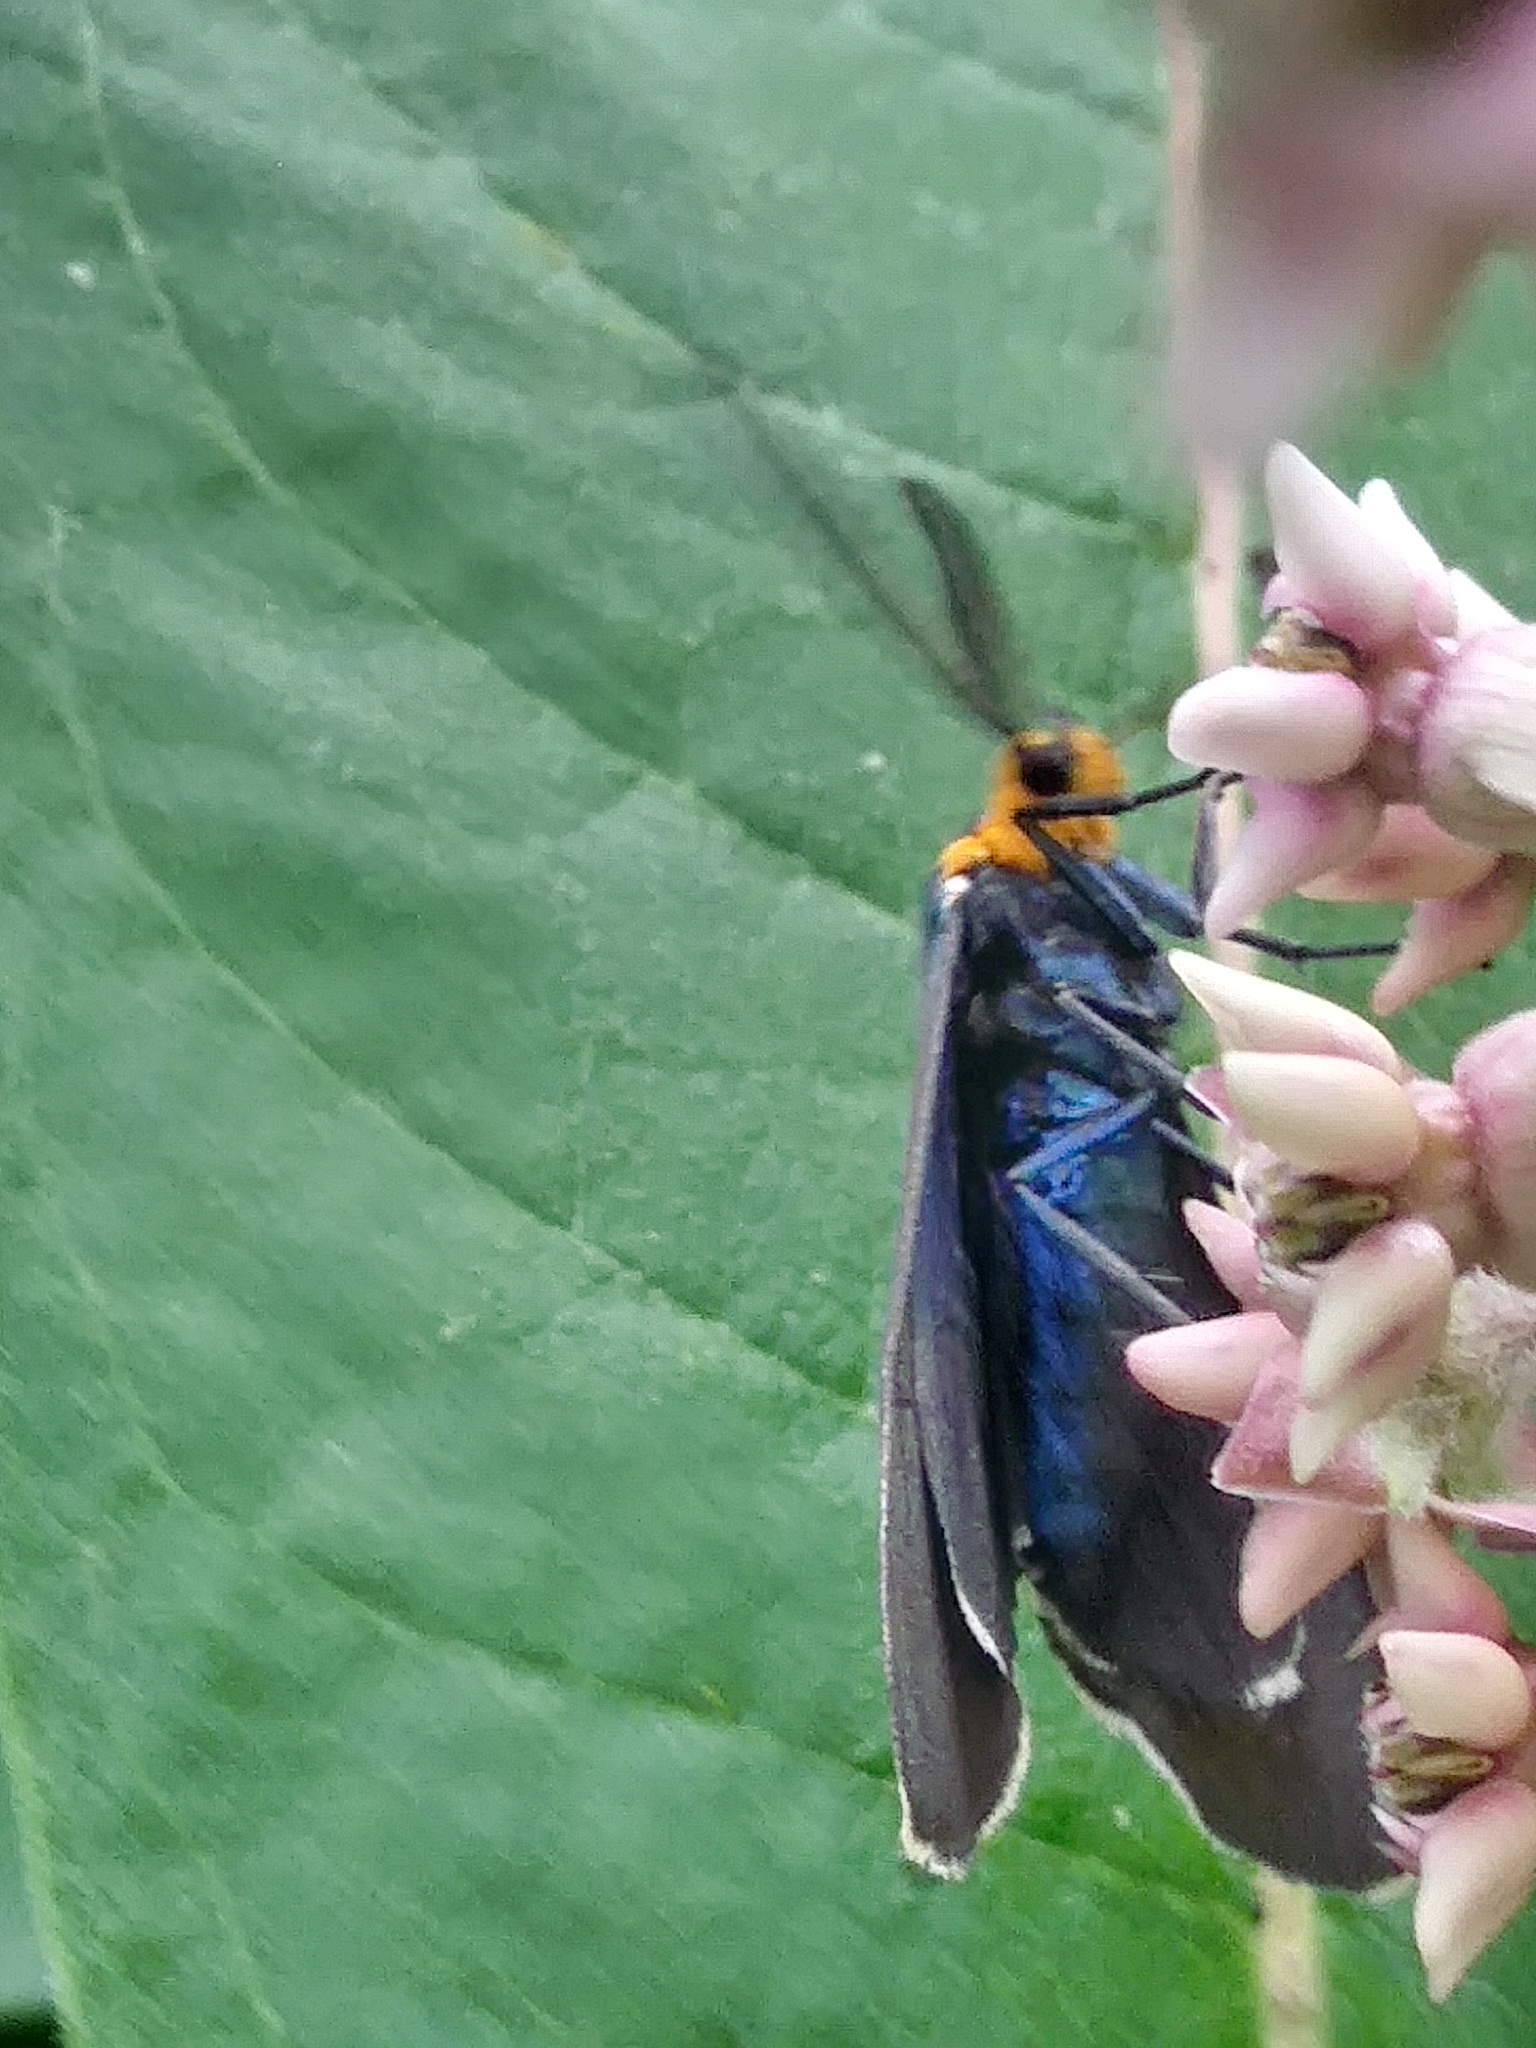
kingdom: Animalia
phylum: Arthropoda
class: Insecta
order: Lepidoptera
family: Erebidae
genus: Ctenucha
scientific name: Ctenucha virginica
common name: Virginia ctenucha moth
